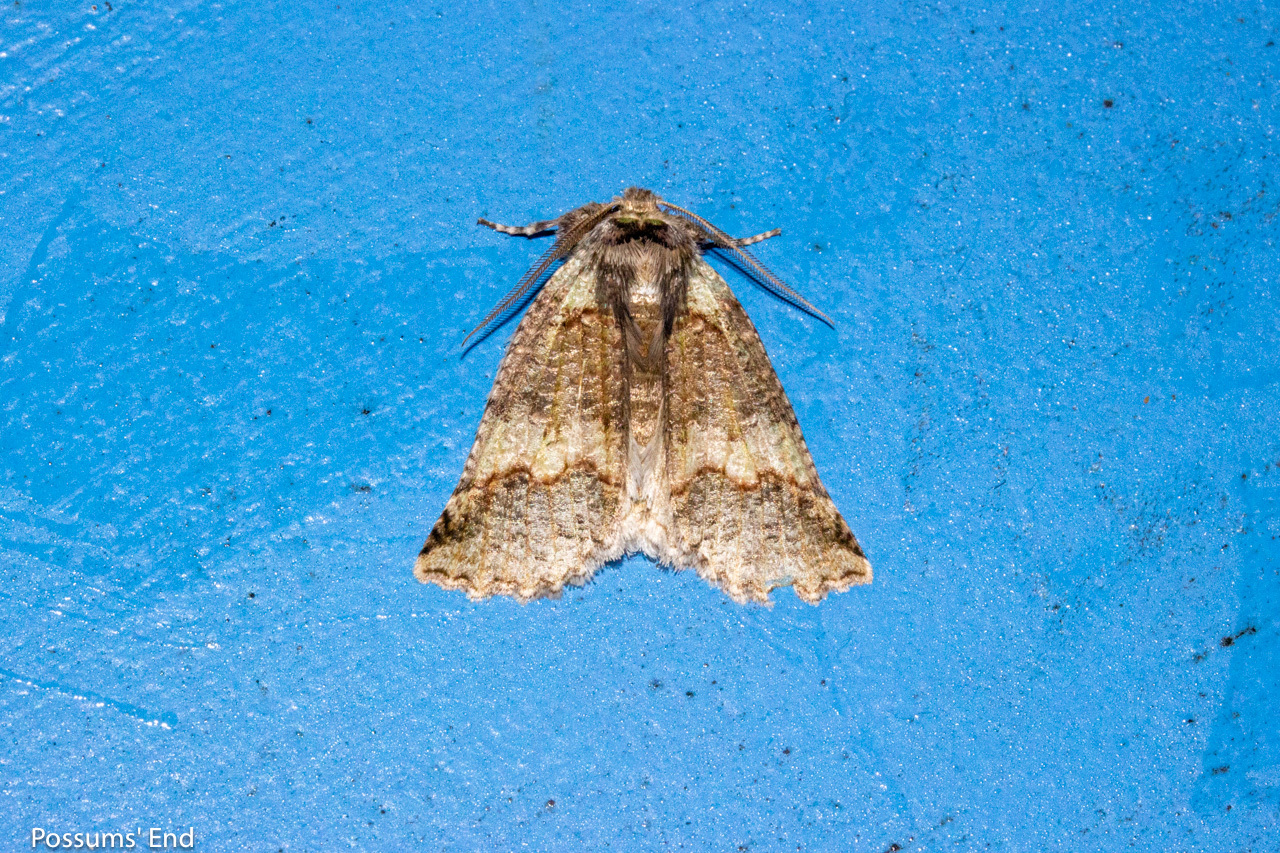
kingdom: Animalia
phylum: Arthropoda
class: Insecta
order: Lepidoptera
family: Geometridae
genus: Declana
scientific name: Declana floccosa
